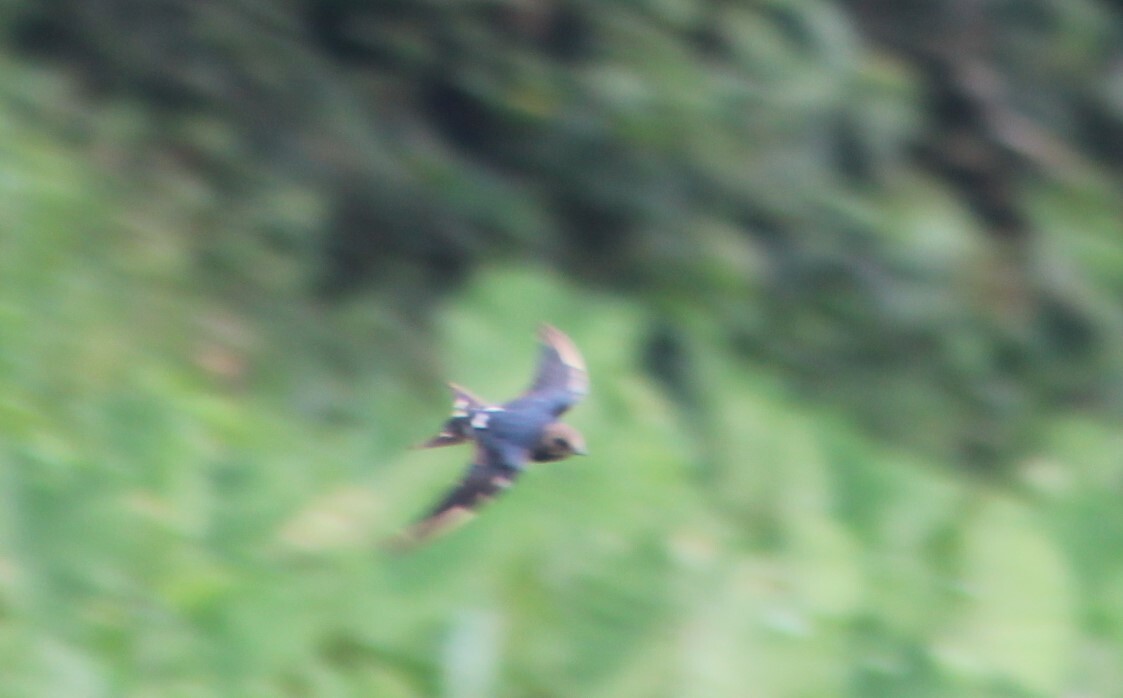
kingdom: Animalia
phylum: Chordata
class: Aves
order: Passeriformes
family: Hirundinidae
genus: Hirundo
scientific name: Hirundo angolensis
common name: Angola swallow
